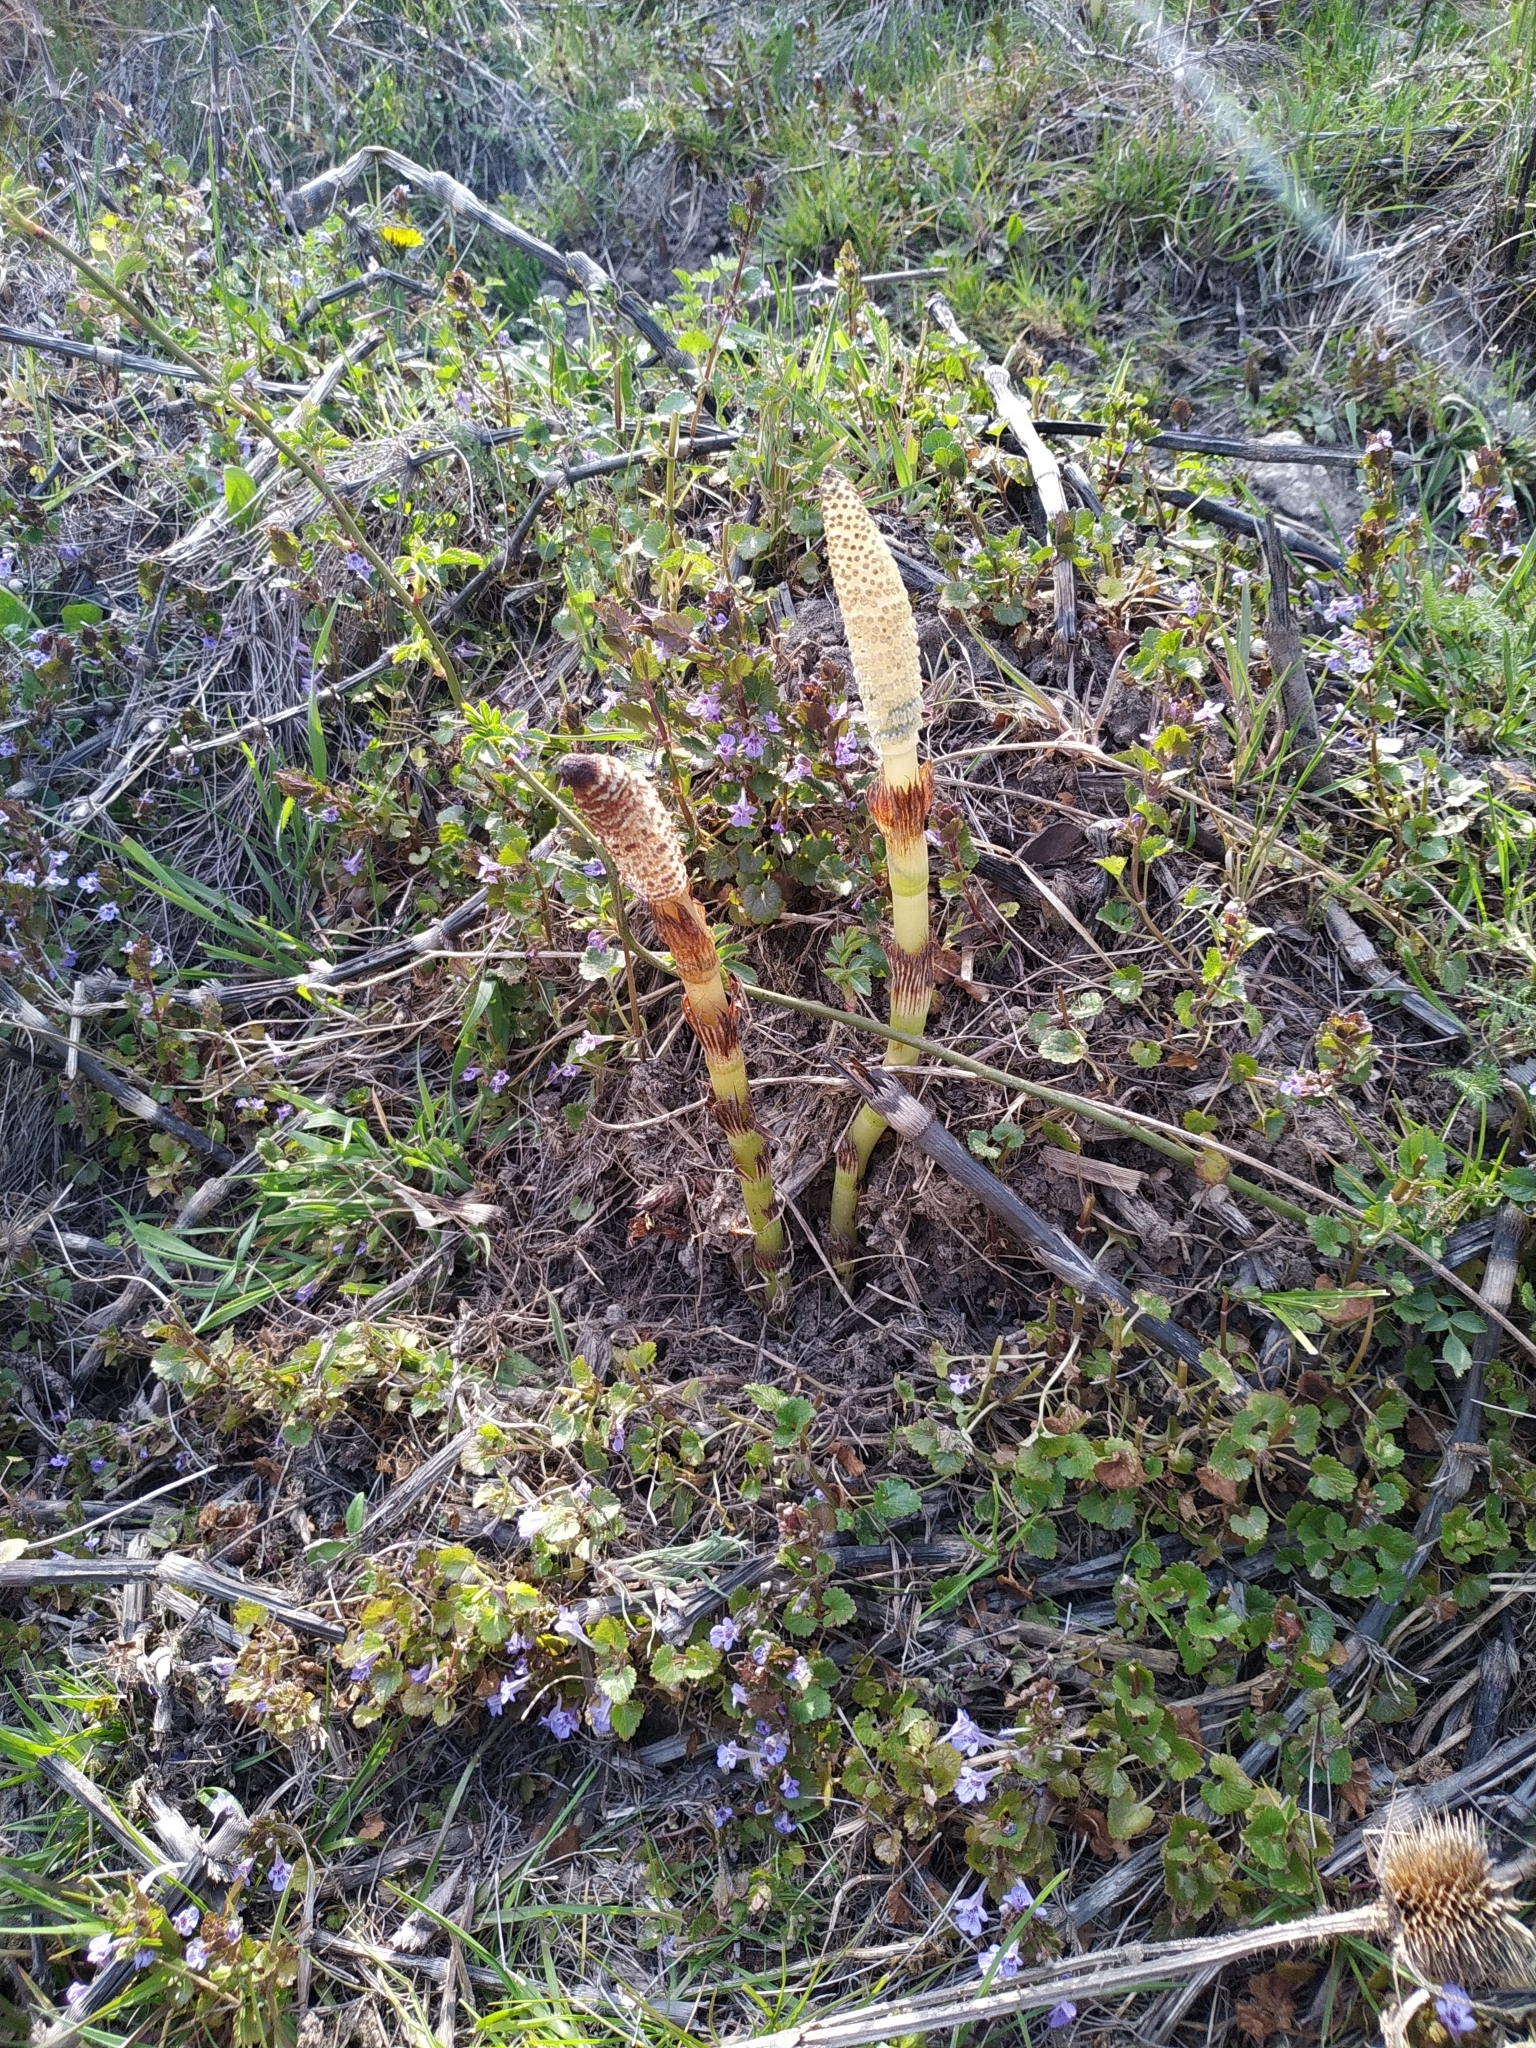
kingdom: Plantae
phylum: Tracheophyta
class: Polypodiopsida
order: Equisetales
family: Equisetaceae
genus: Equisetum
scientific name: Equisetum telmateia
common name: Great horsetail
